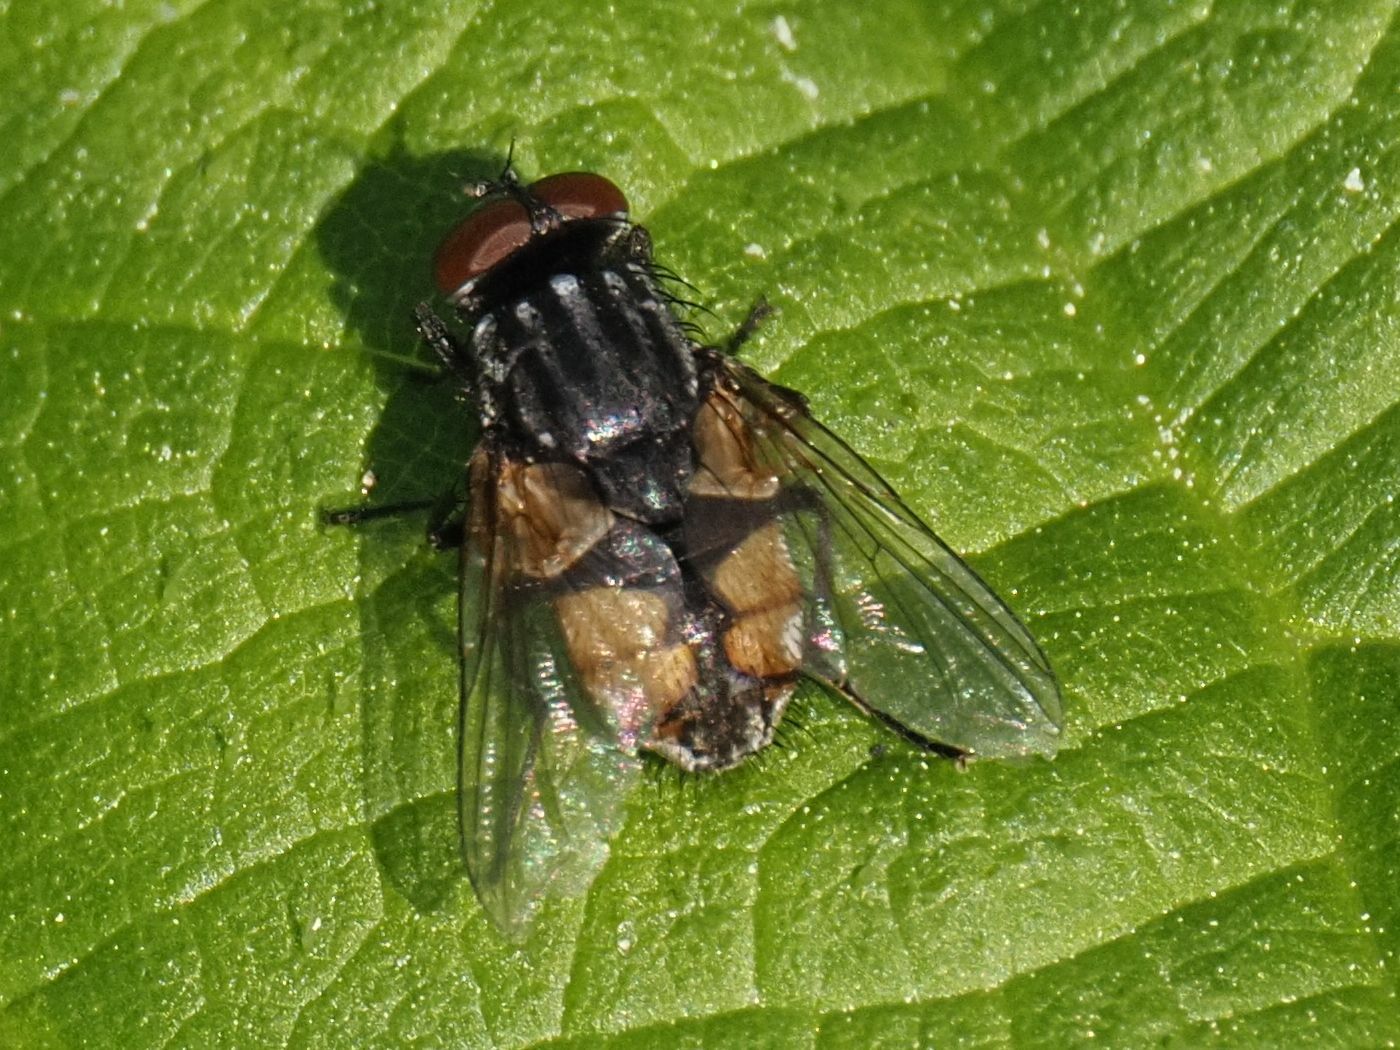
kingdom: Animalia
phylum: Arthropoda
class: Insecta
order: Diptera
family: Muscidae
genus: Musca
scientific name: Musca autumnalis
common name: Face fly
